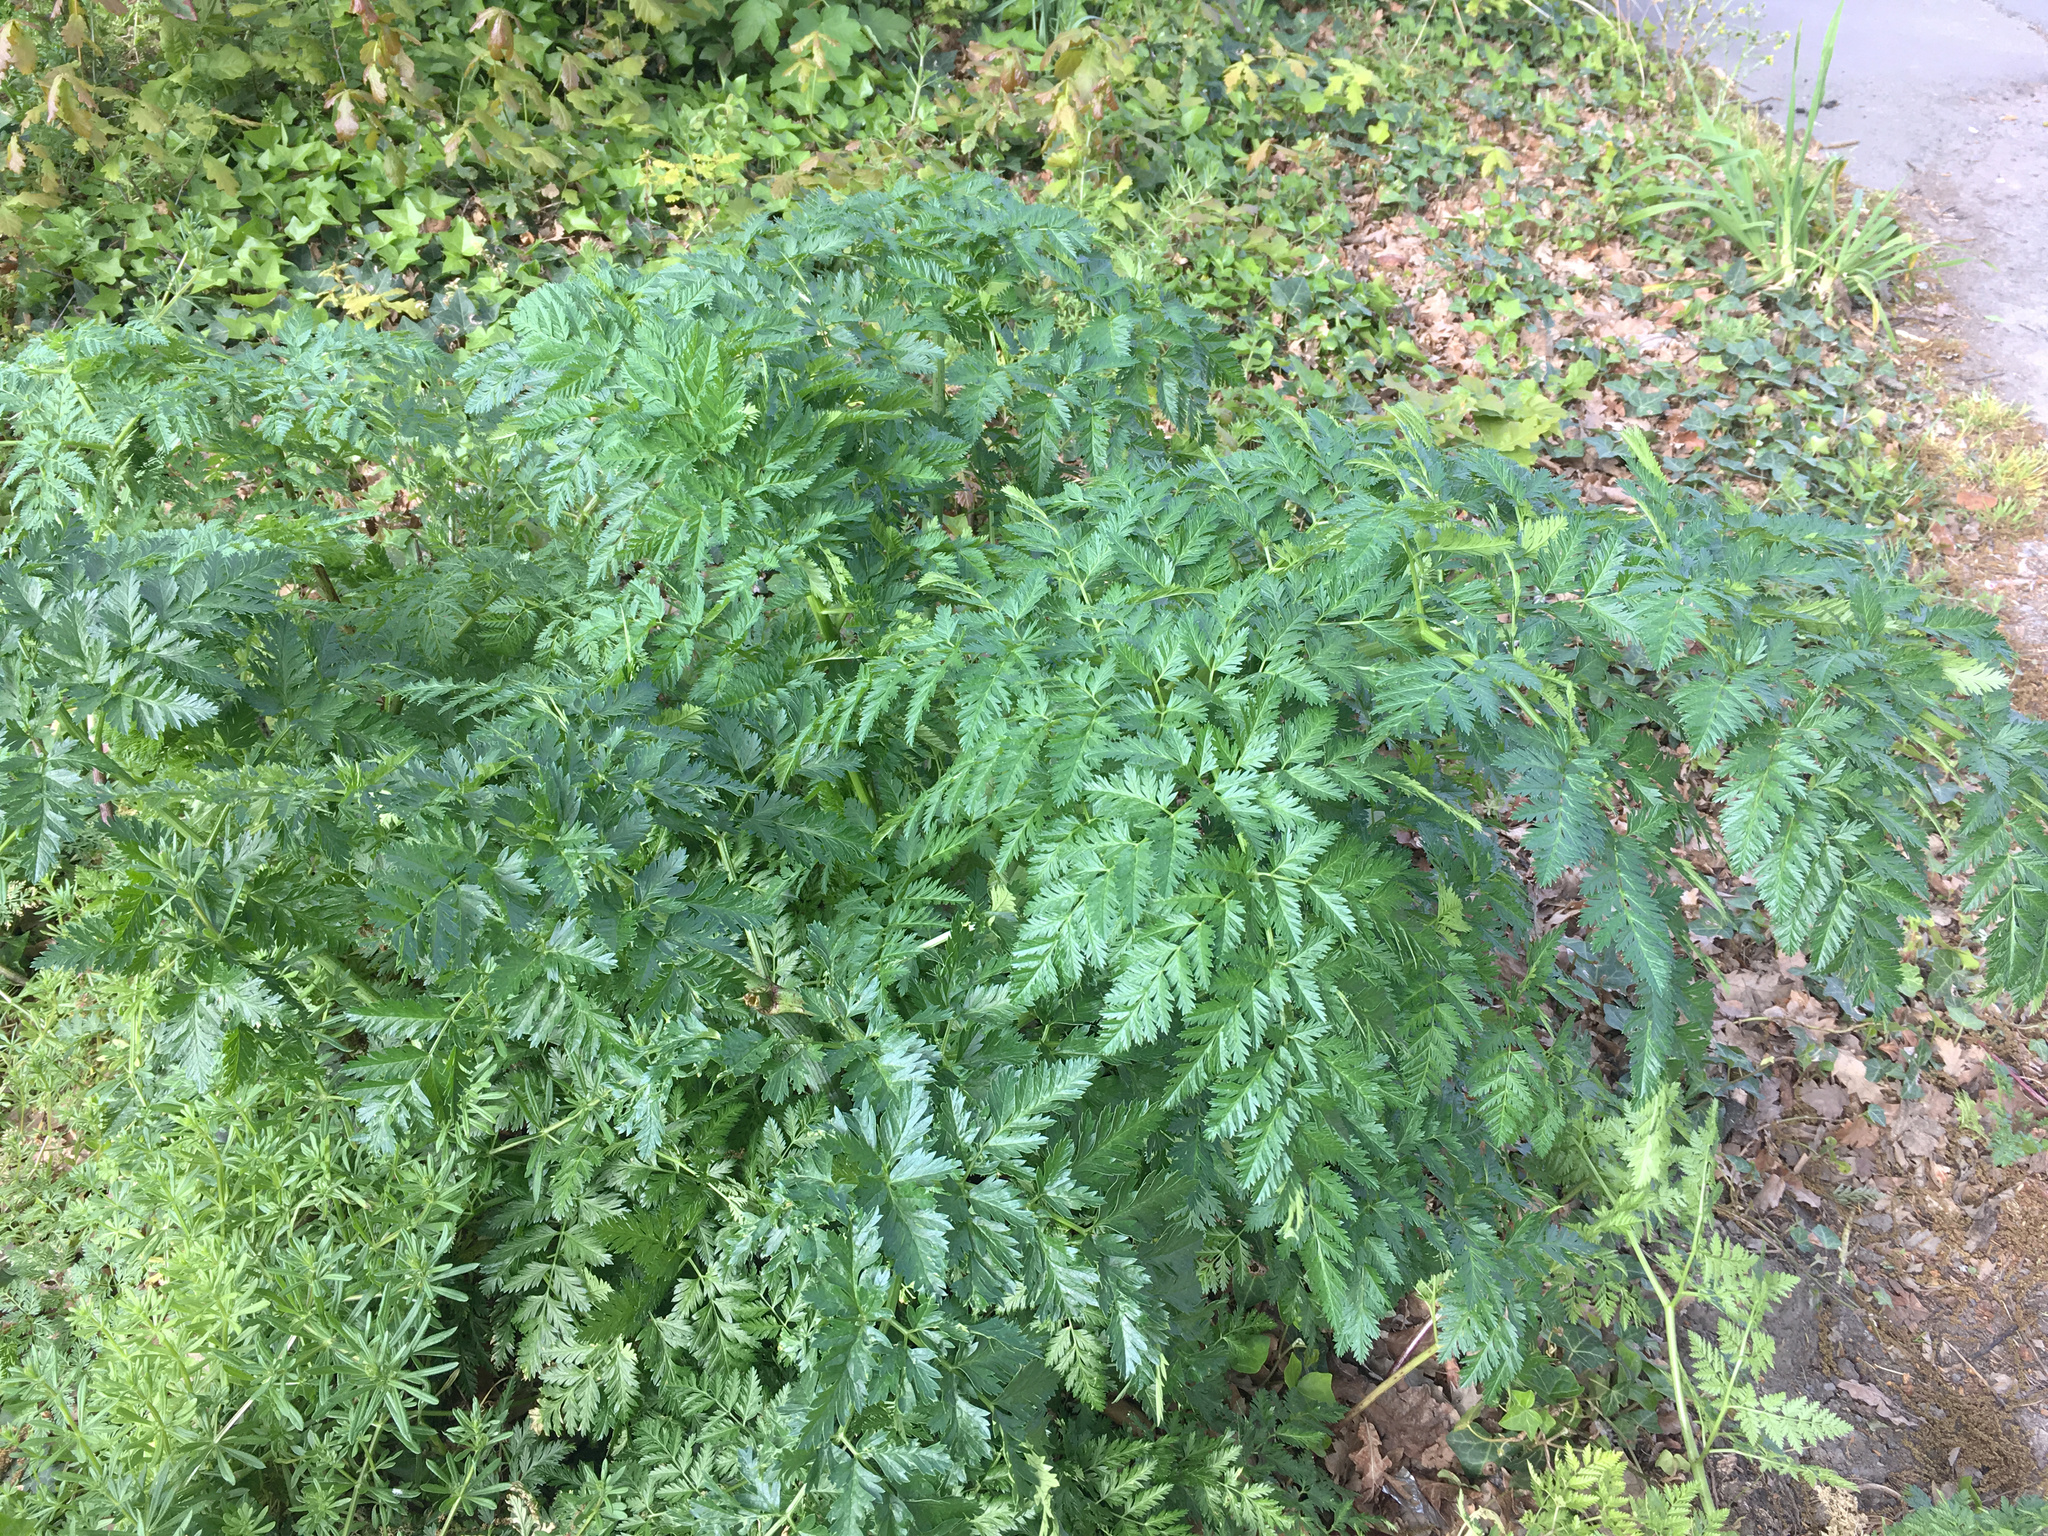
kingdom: Plantae
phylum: Tracheophyta
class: Magnoliopsida
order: Apiales
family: Apiaceae
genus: Conium
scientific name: Conium maculatum
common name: Hemlock
